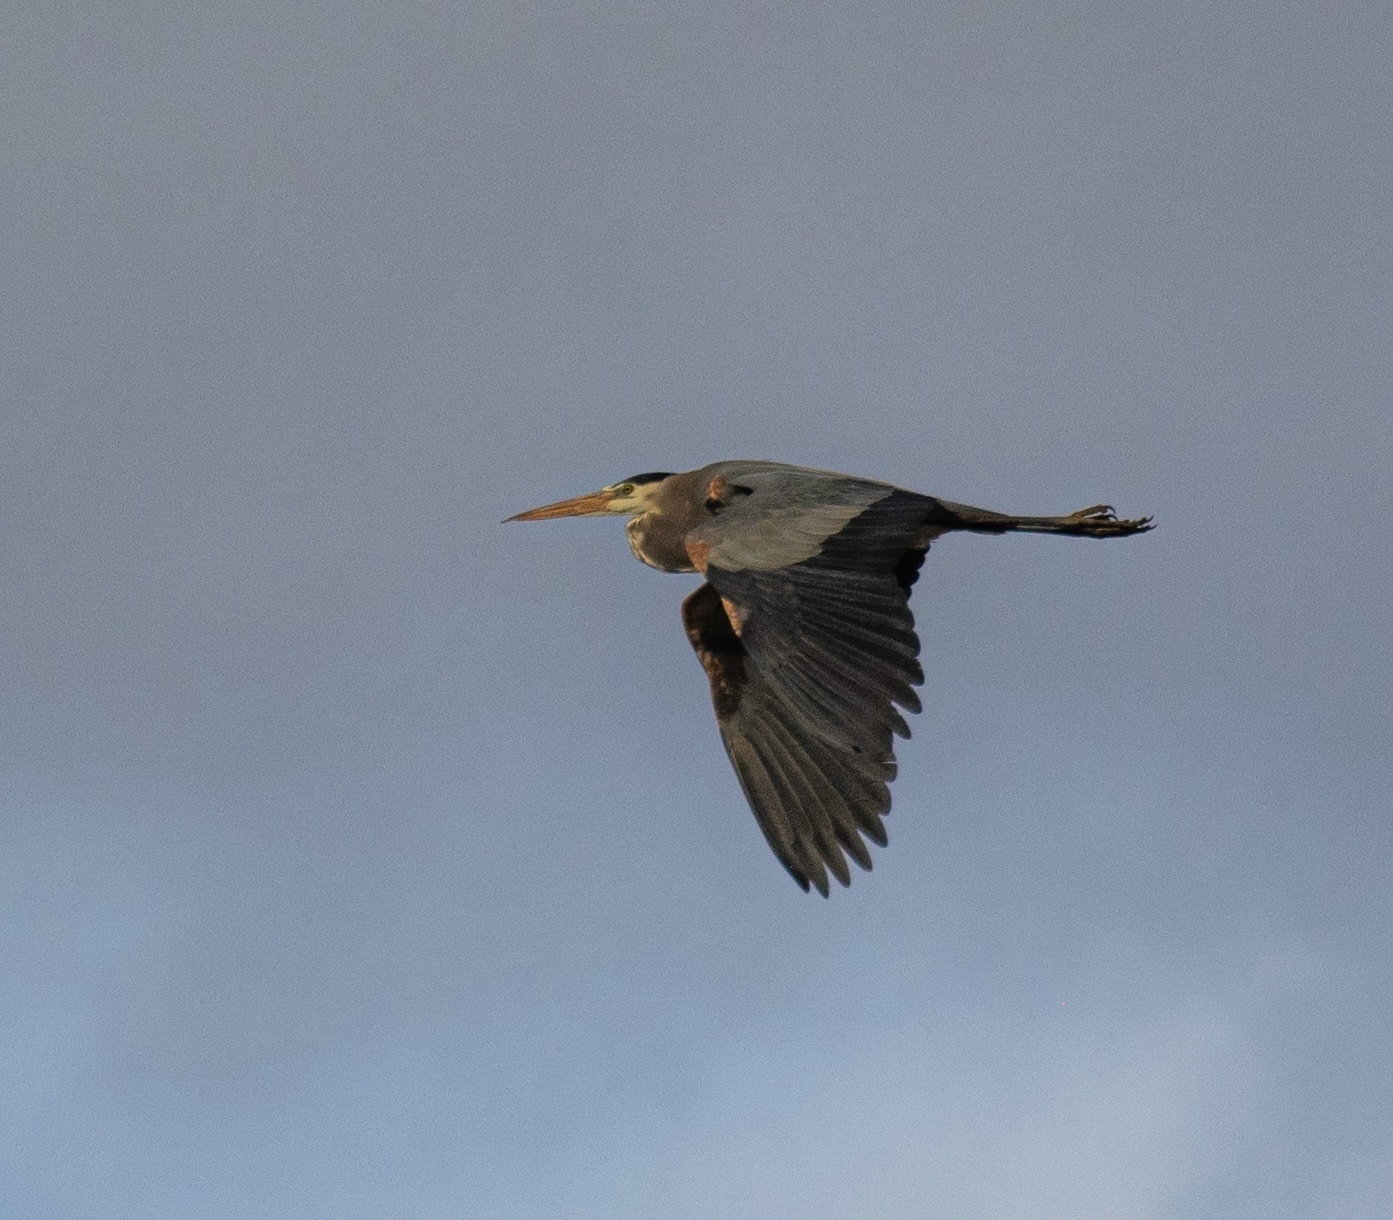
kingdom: Animalia
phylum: Chordata
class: Aves
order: Pelecaniformes
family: Ardeidae
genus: Ardea
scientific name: Ardea herodias
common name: Great blue heron
